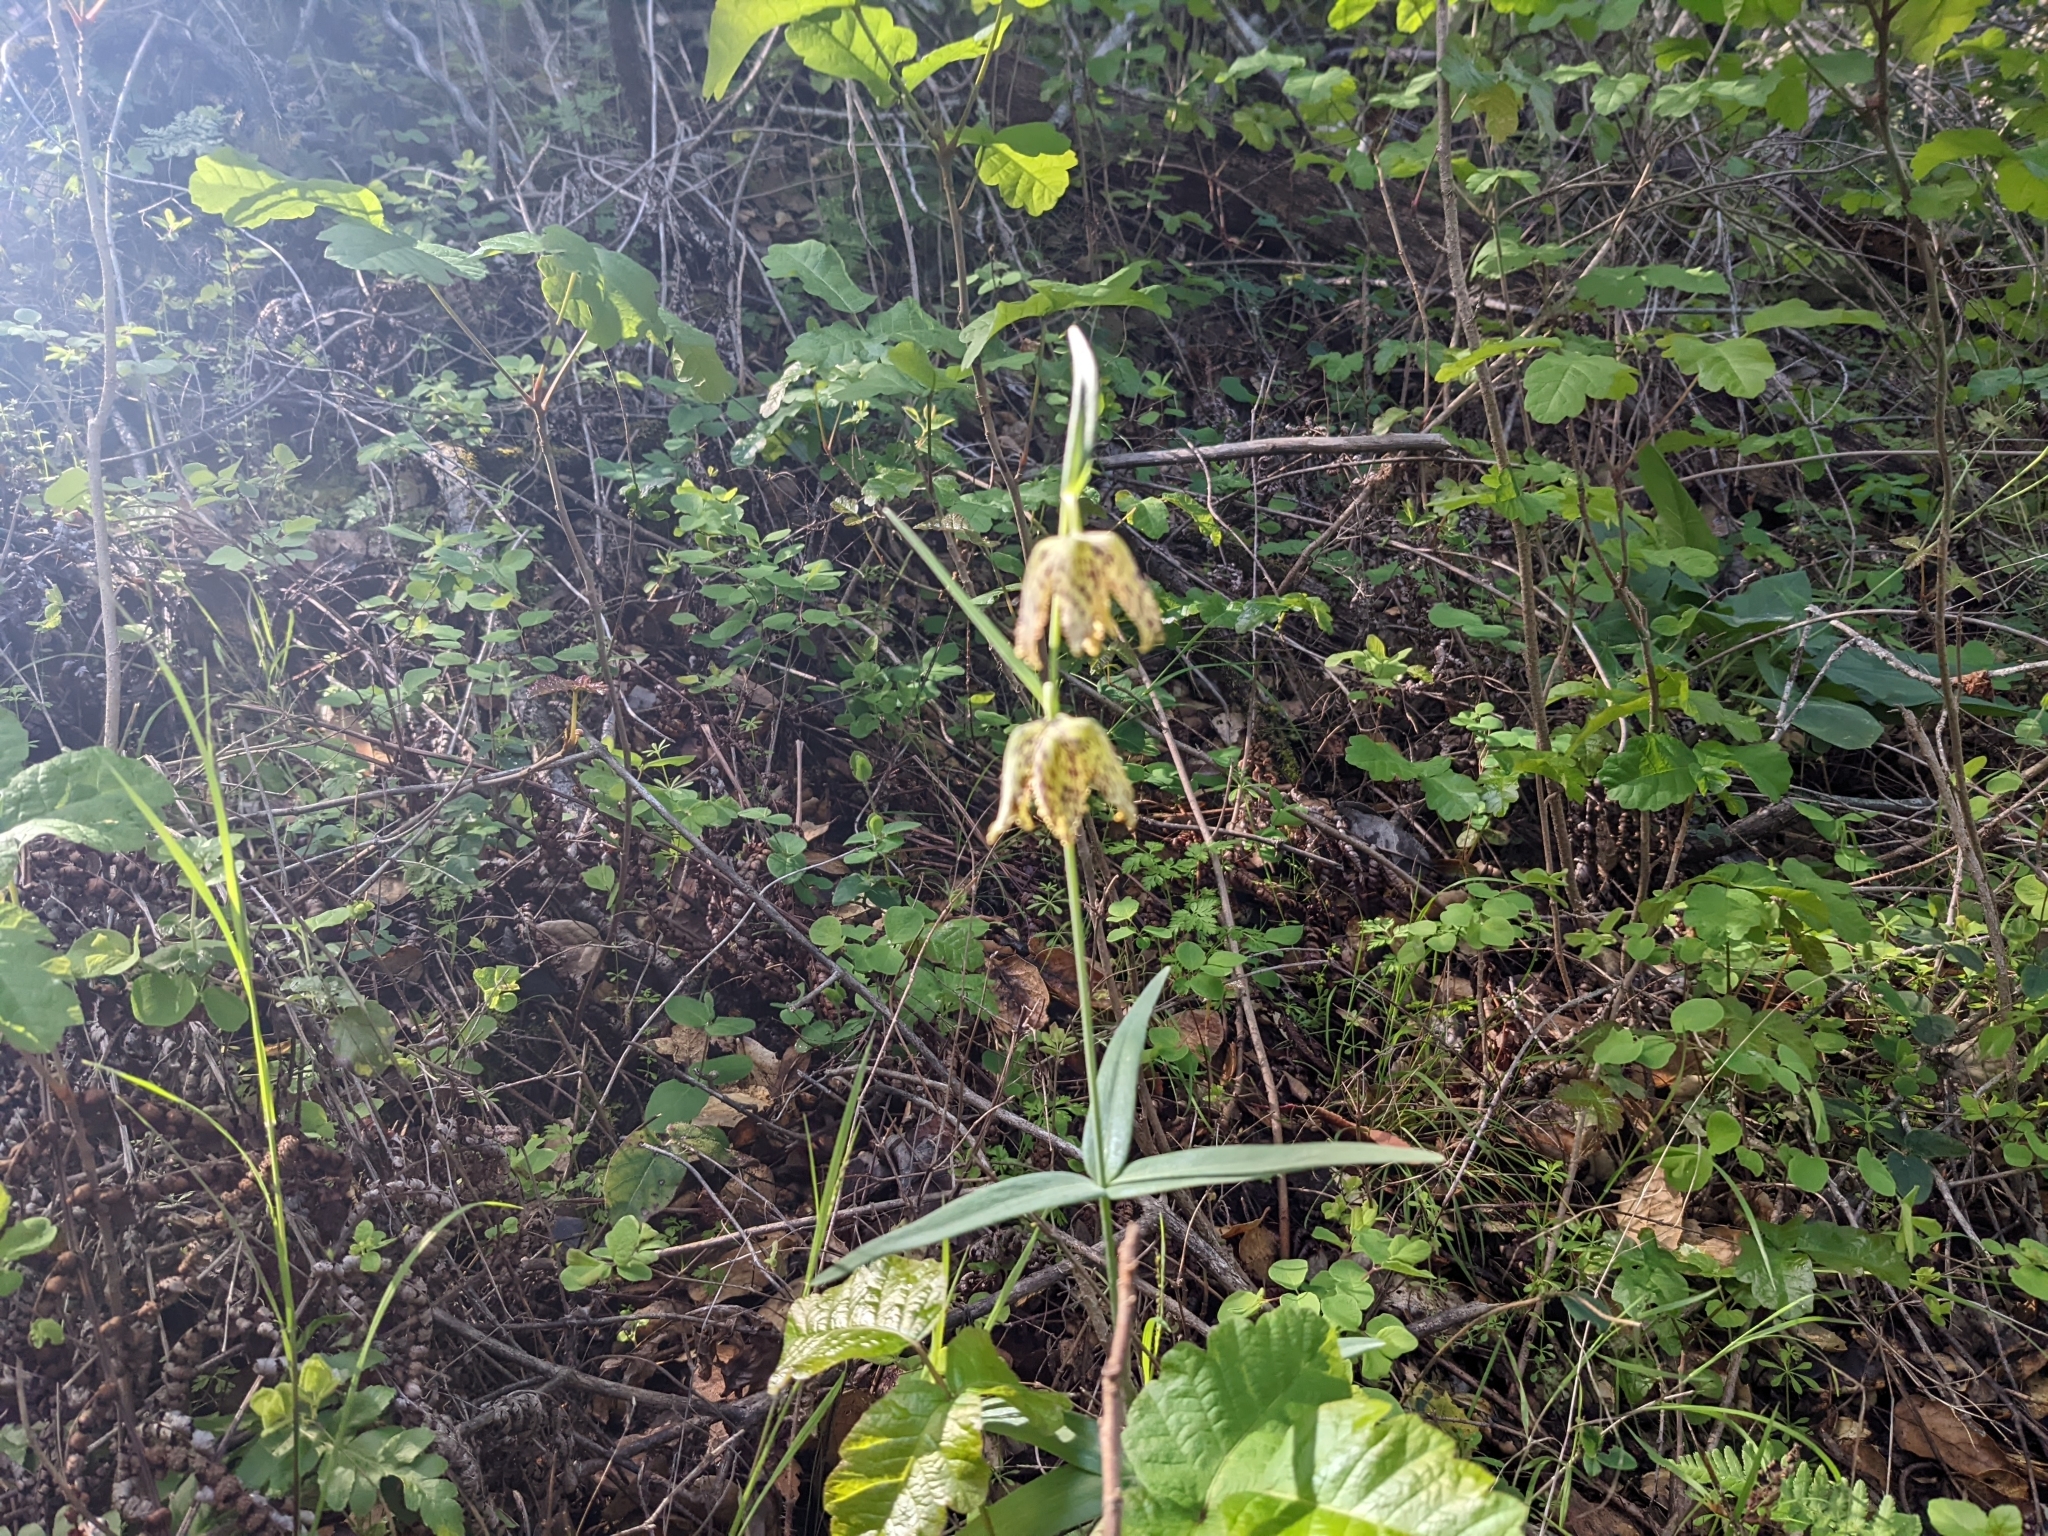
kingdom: Plantae
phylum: Tracheophyta
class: Liliopsida
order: Liliales
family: Liliaceae
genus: Fritillaria
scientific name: Fritillaria affinis
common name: Ojai fritillary
